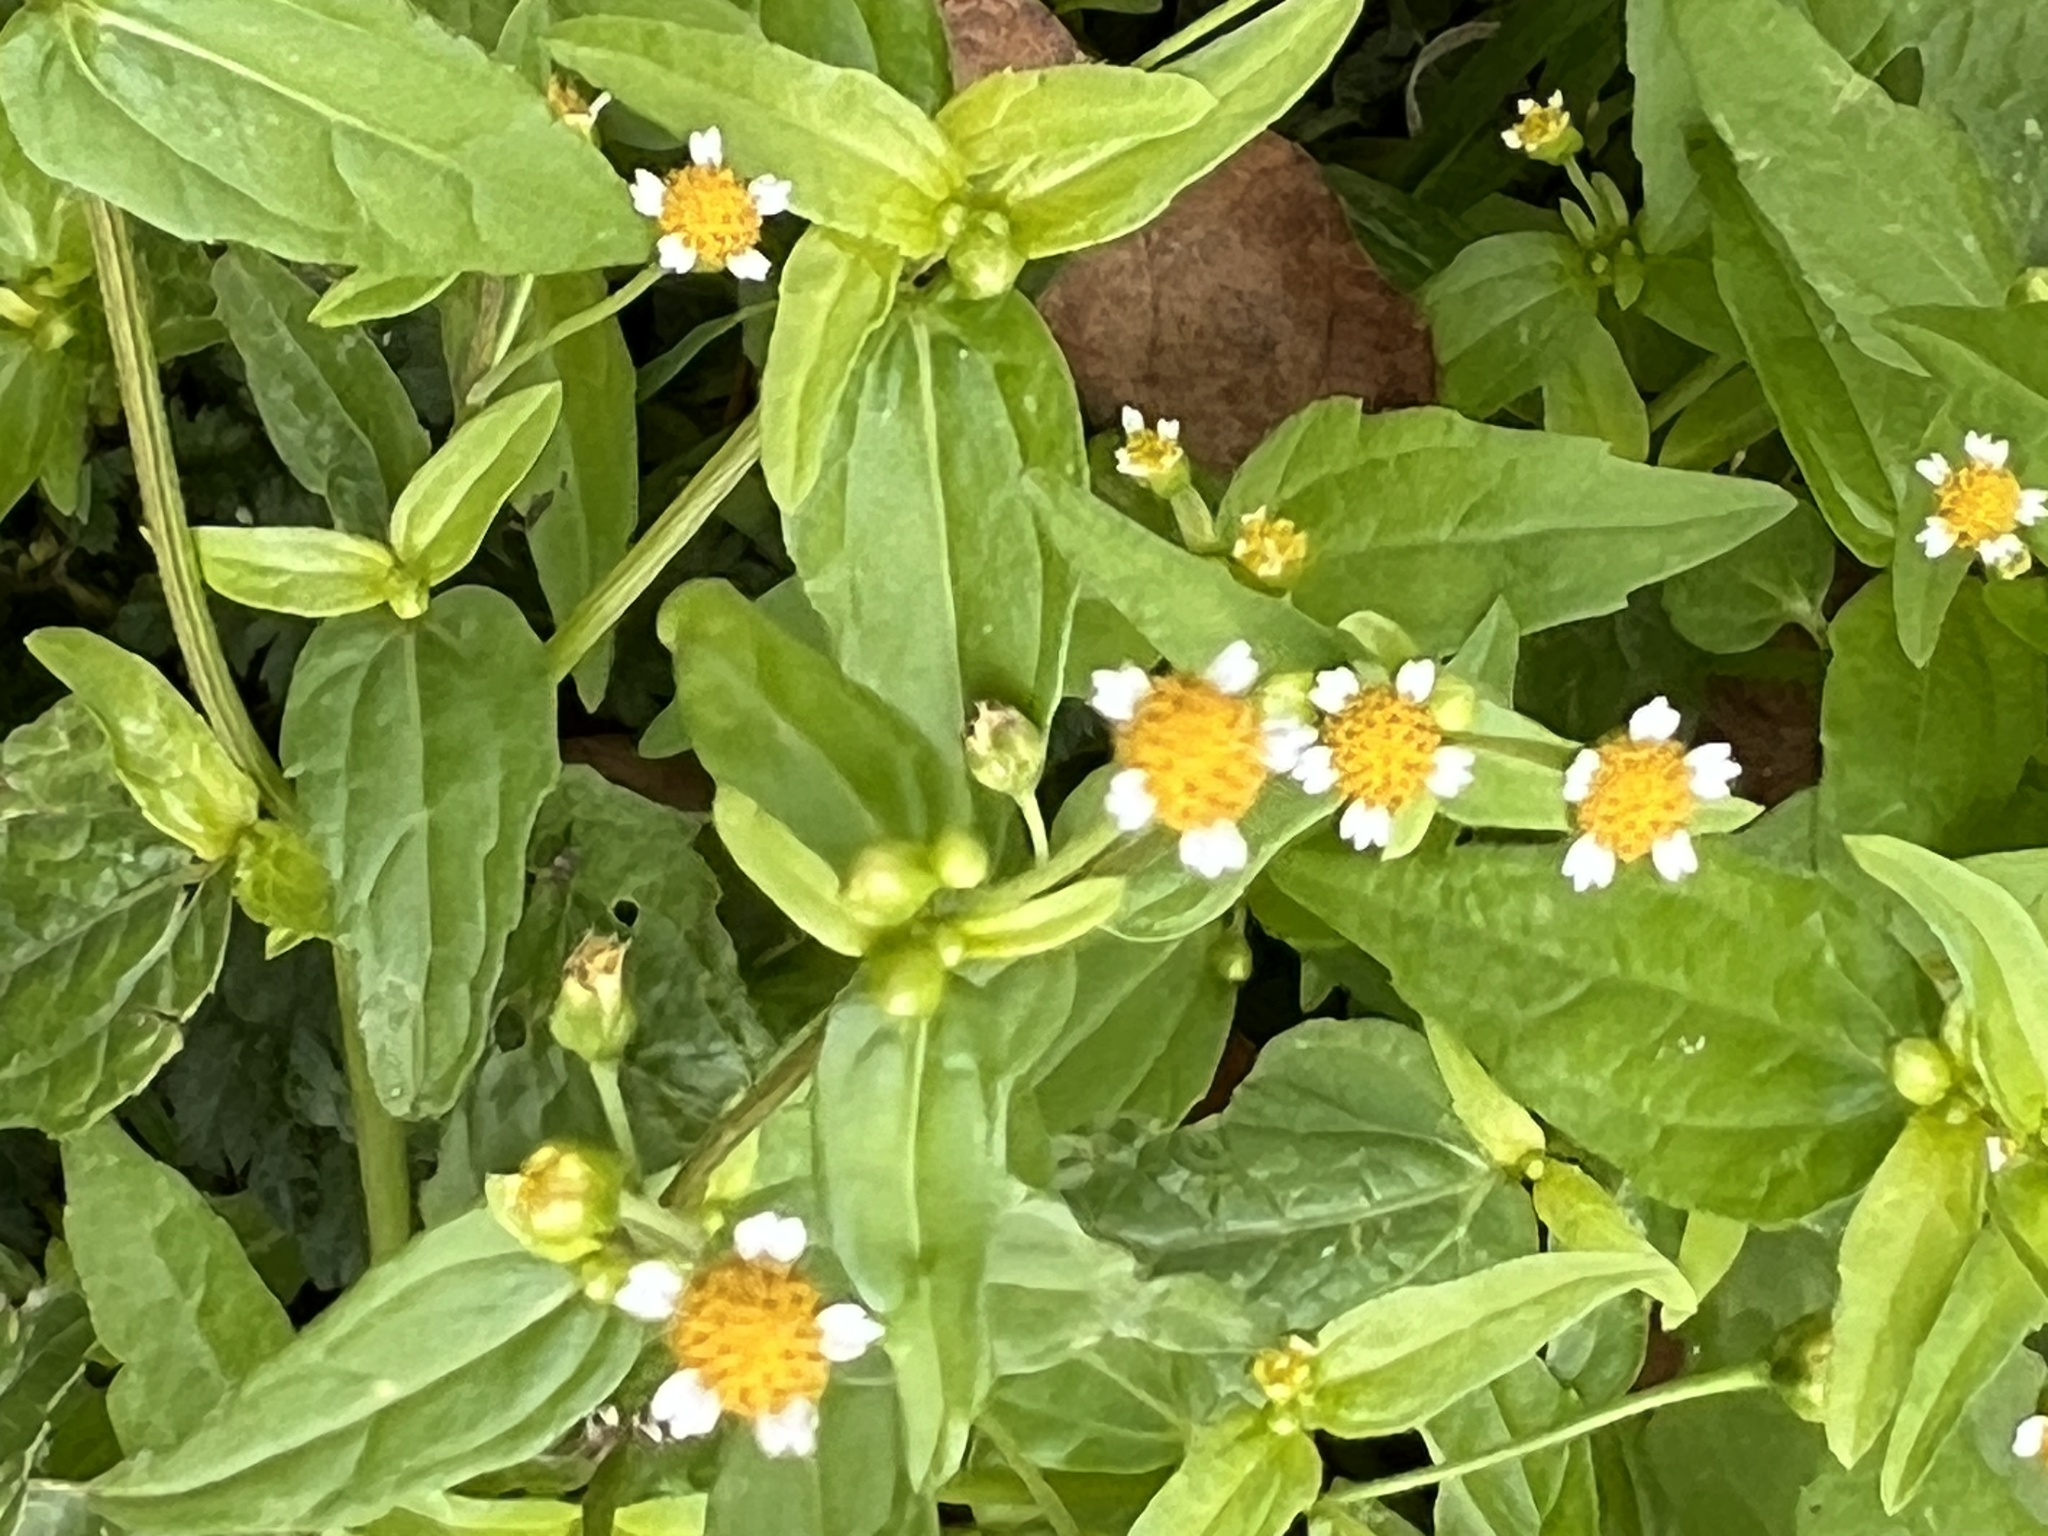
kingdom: Plantae
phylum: Tracheophyta
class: Magnoliopsida
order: Asterales
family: Asteraceae
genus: Galinsoga
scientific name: Galinsoga parviflora
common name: Gallant soldier
